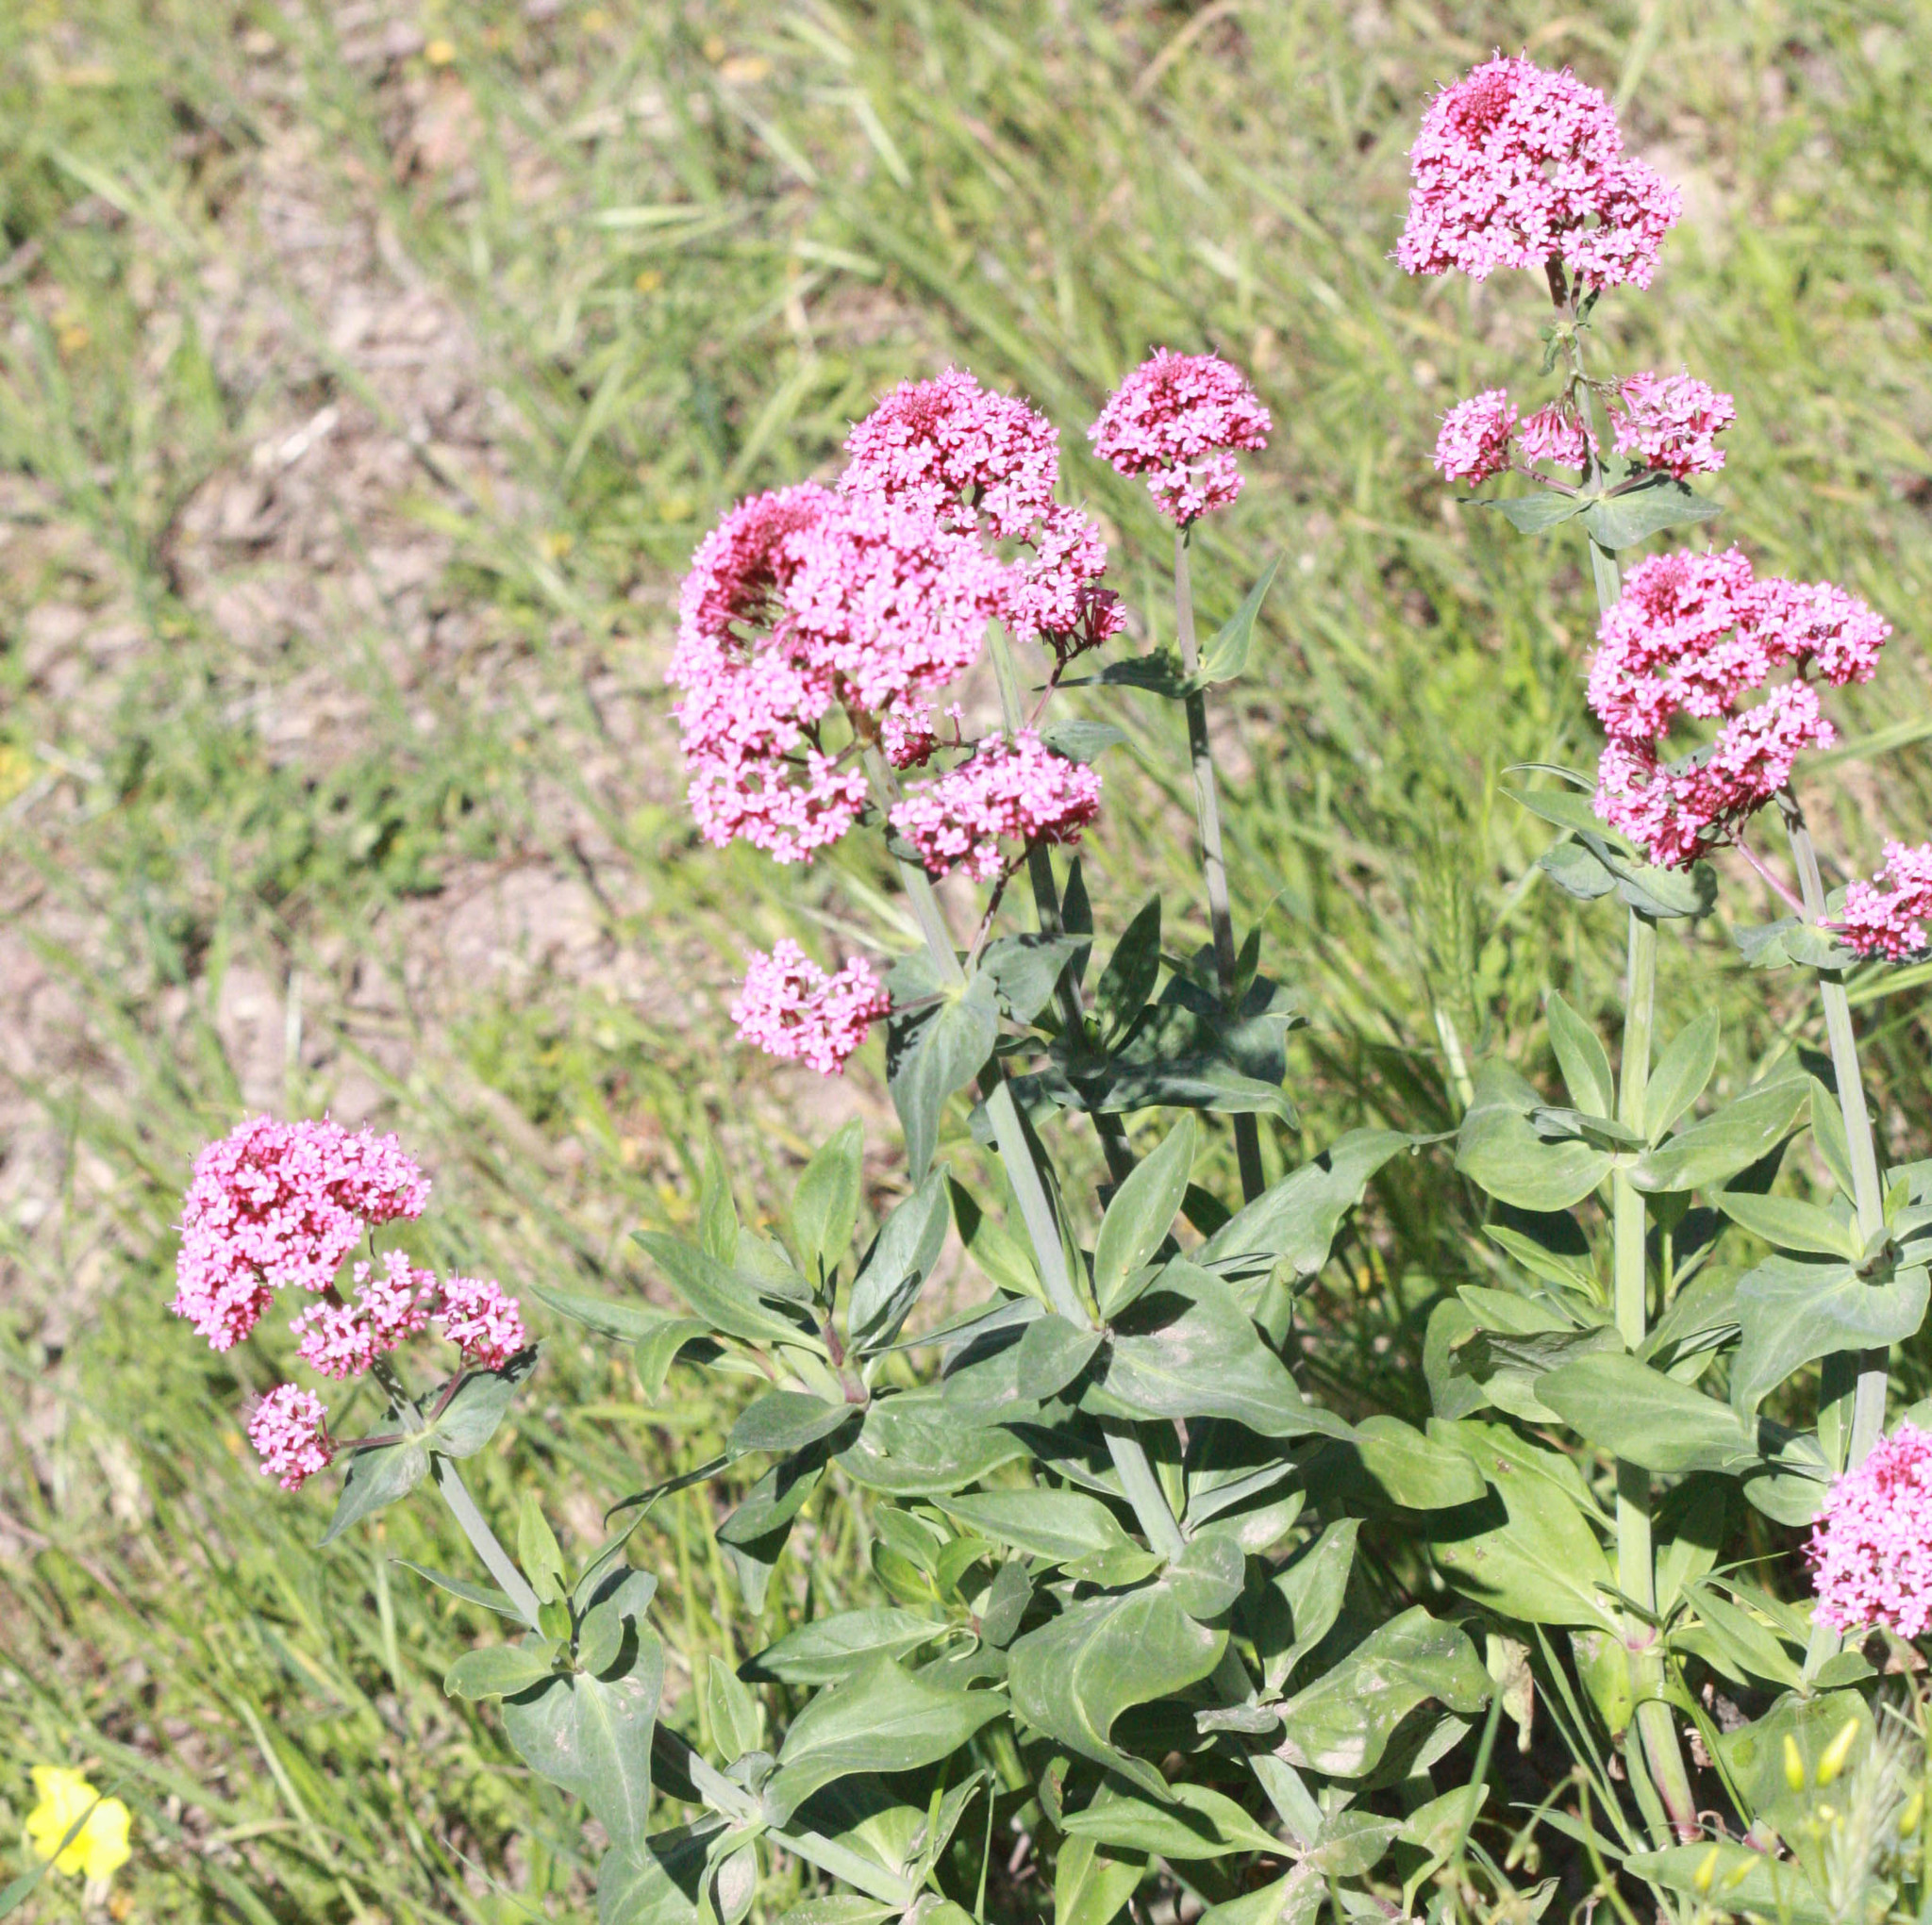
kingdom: Plantae
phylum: Tracheophyta
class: Magnoliopsida
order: Dipsacales
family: Caprifoliaceae
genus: Centranthus
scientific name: Centranthus ruber
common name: Red valerian
